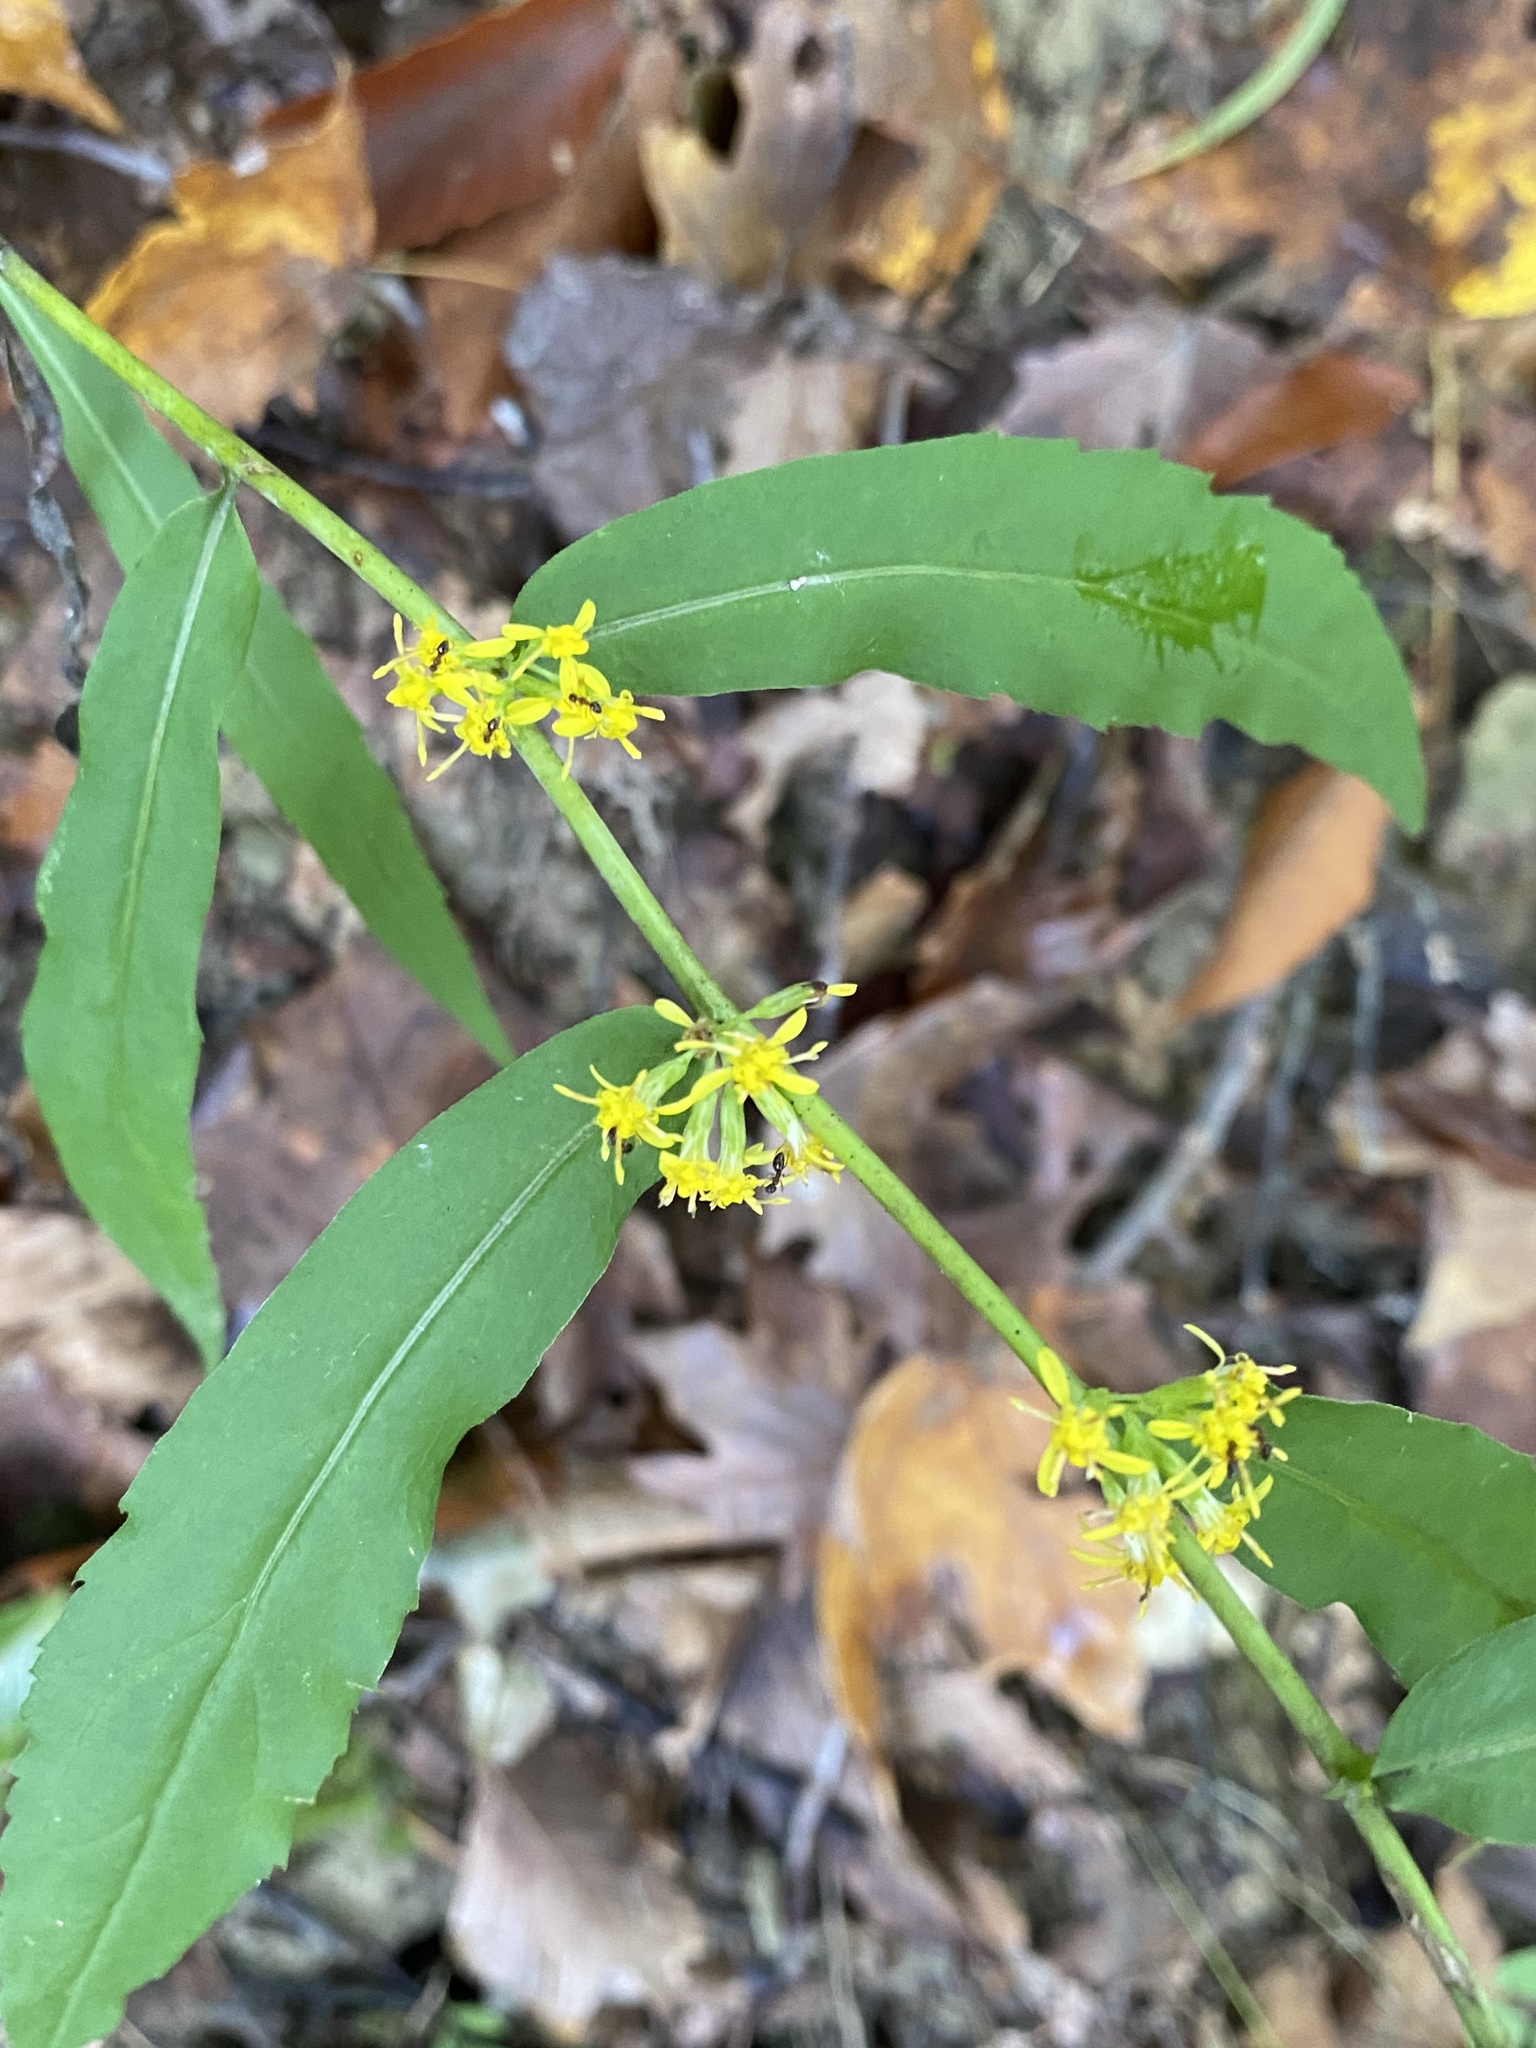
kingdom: Plantae
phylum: Tracheophyta
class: Magnoliopsida
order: Asterales
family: Asteraceae
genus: Solidago
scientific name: Solidago caesia
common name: Woodland goldenrod
